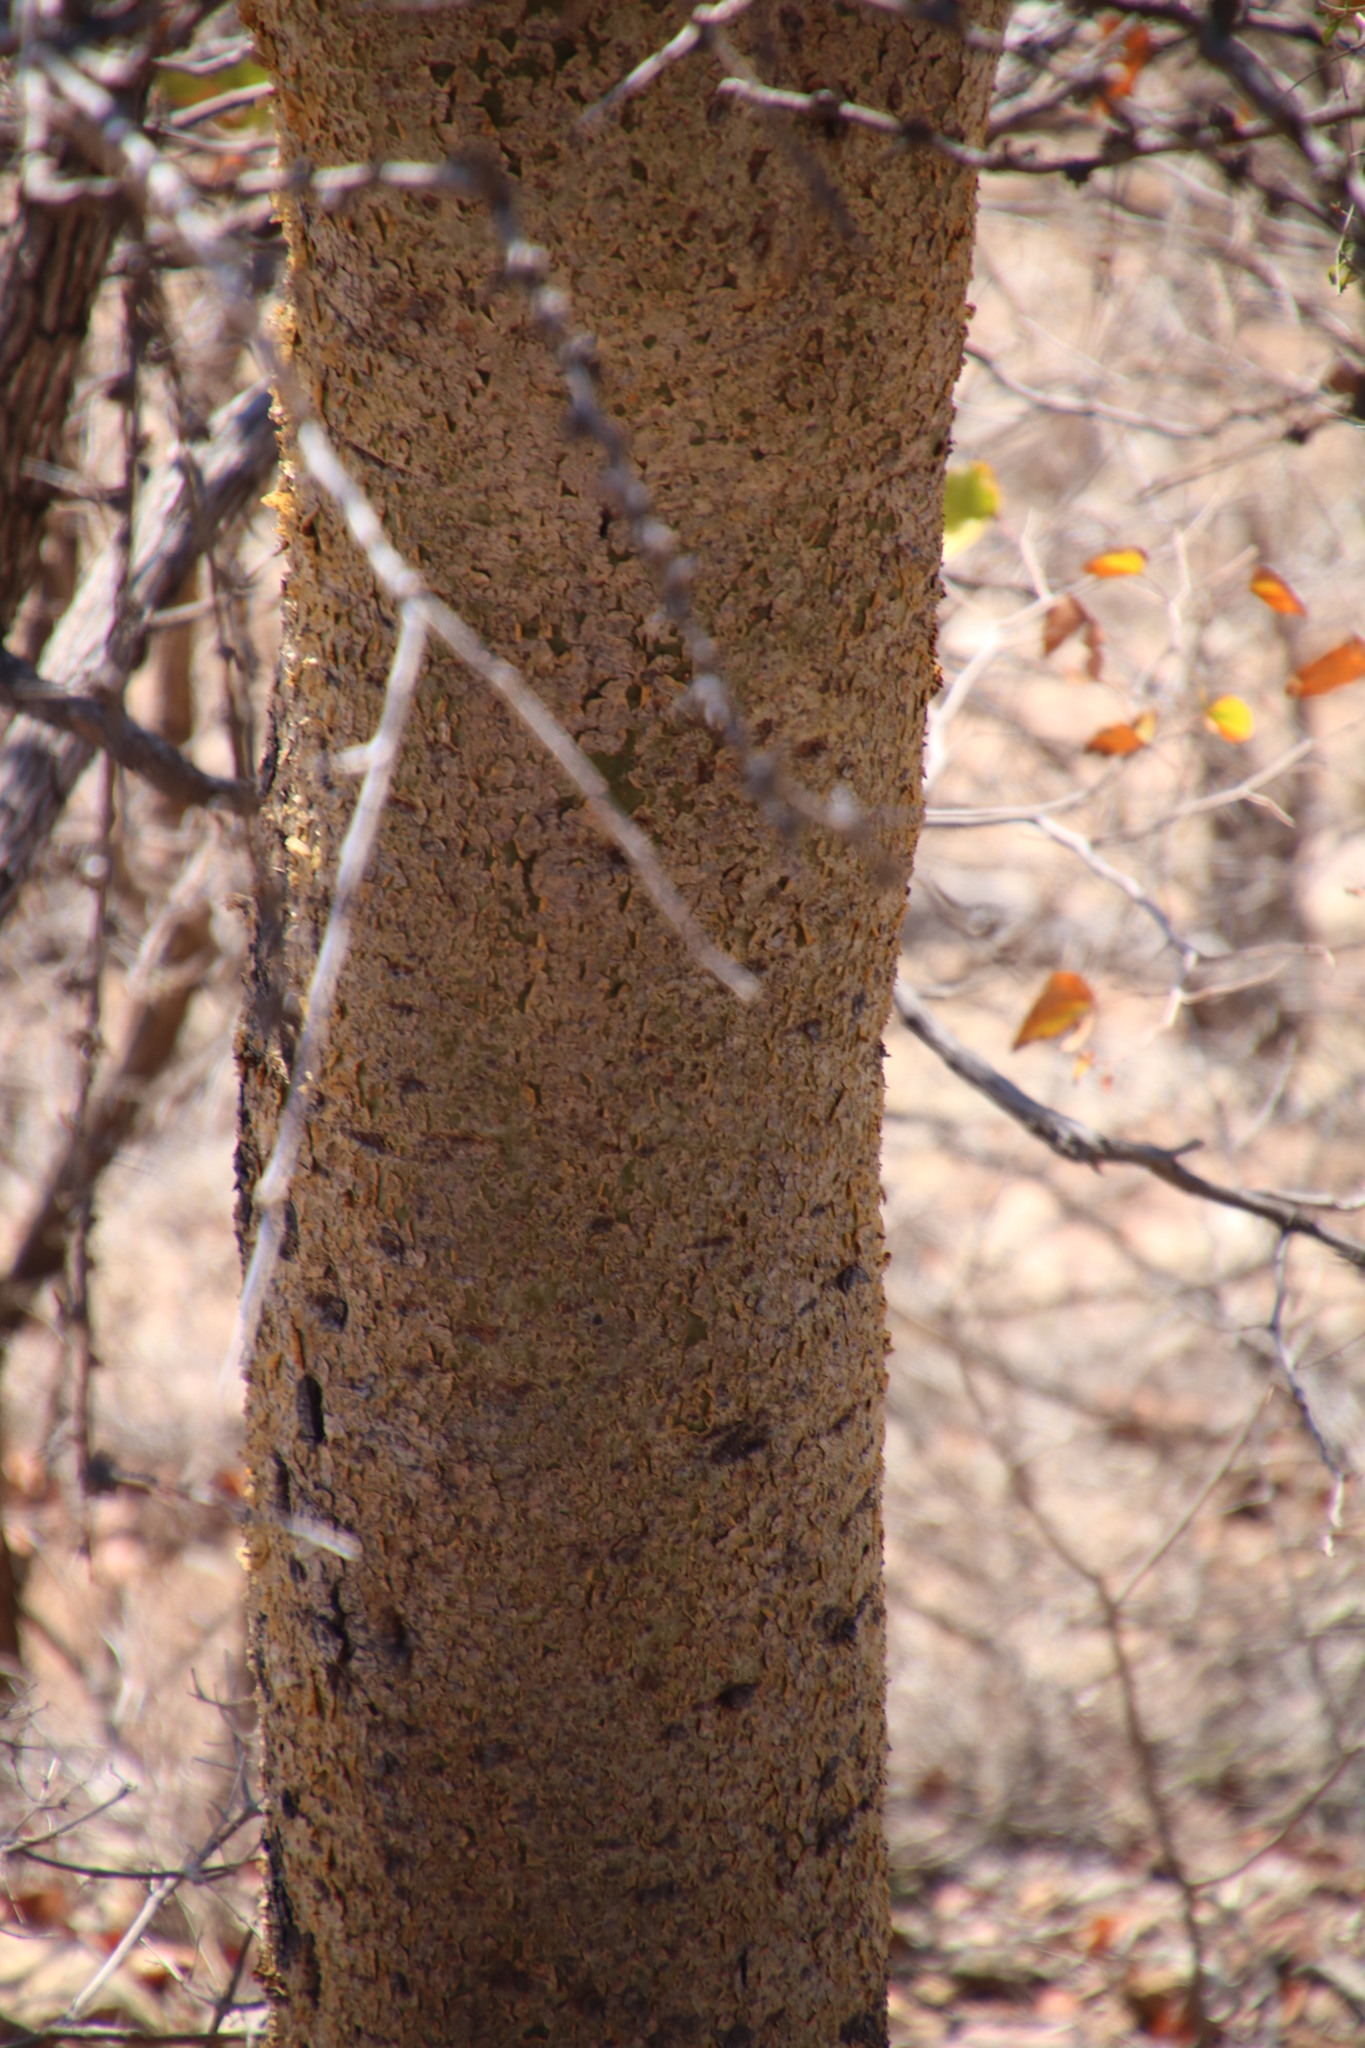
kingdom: Plantae
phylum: Tracheophyta
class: Magnoliopsida
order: Sapindales
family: Burseraceae
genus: Commiphora
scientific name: Commiphora glandulosa
